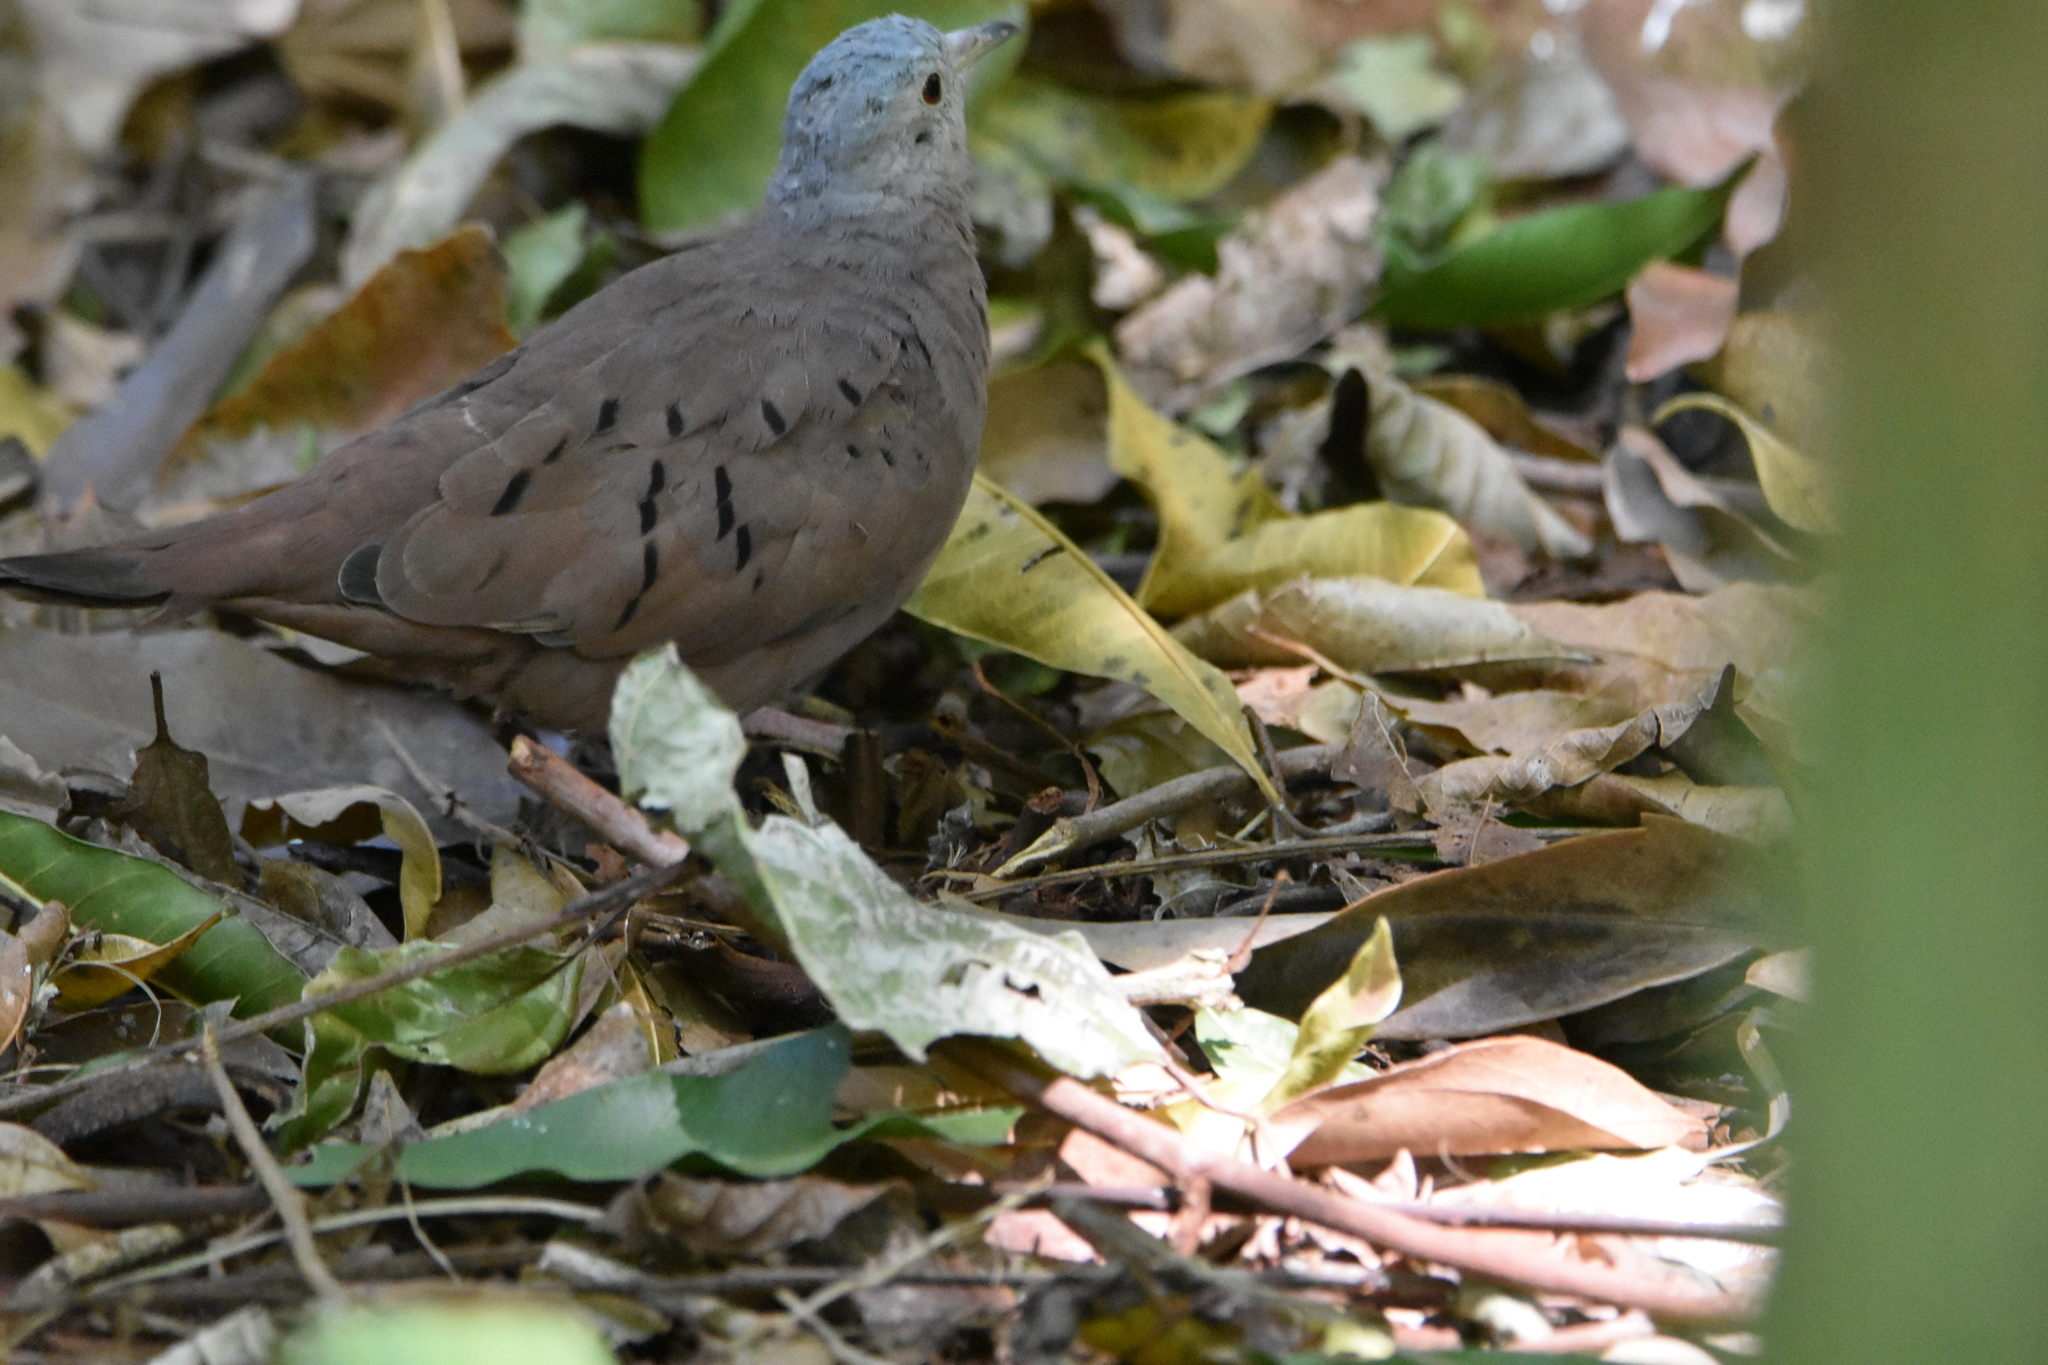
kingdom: Animalia
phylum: Chordata
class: Aves
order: Columbiformes
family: Columbidae
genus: Columbina
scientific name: Columbina talpacoti
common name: Ruddy ground dove
